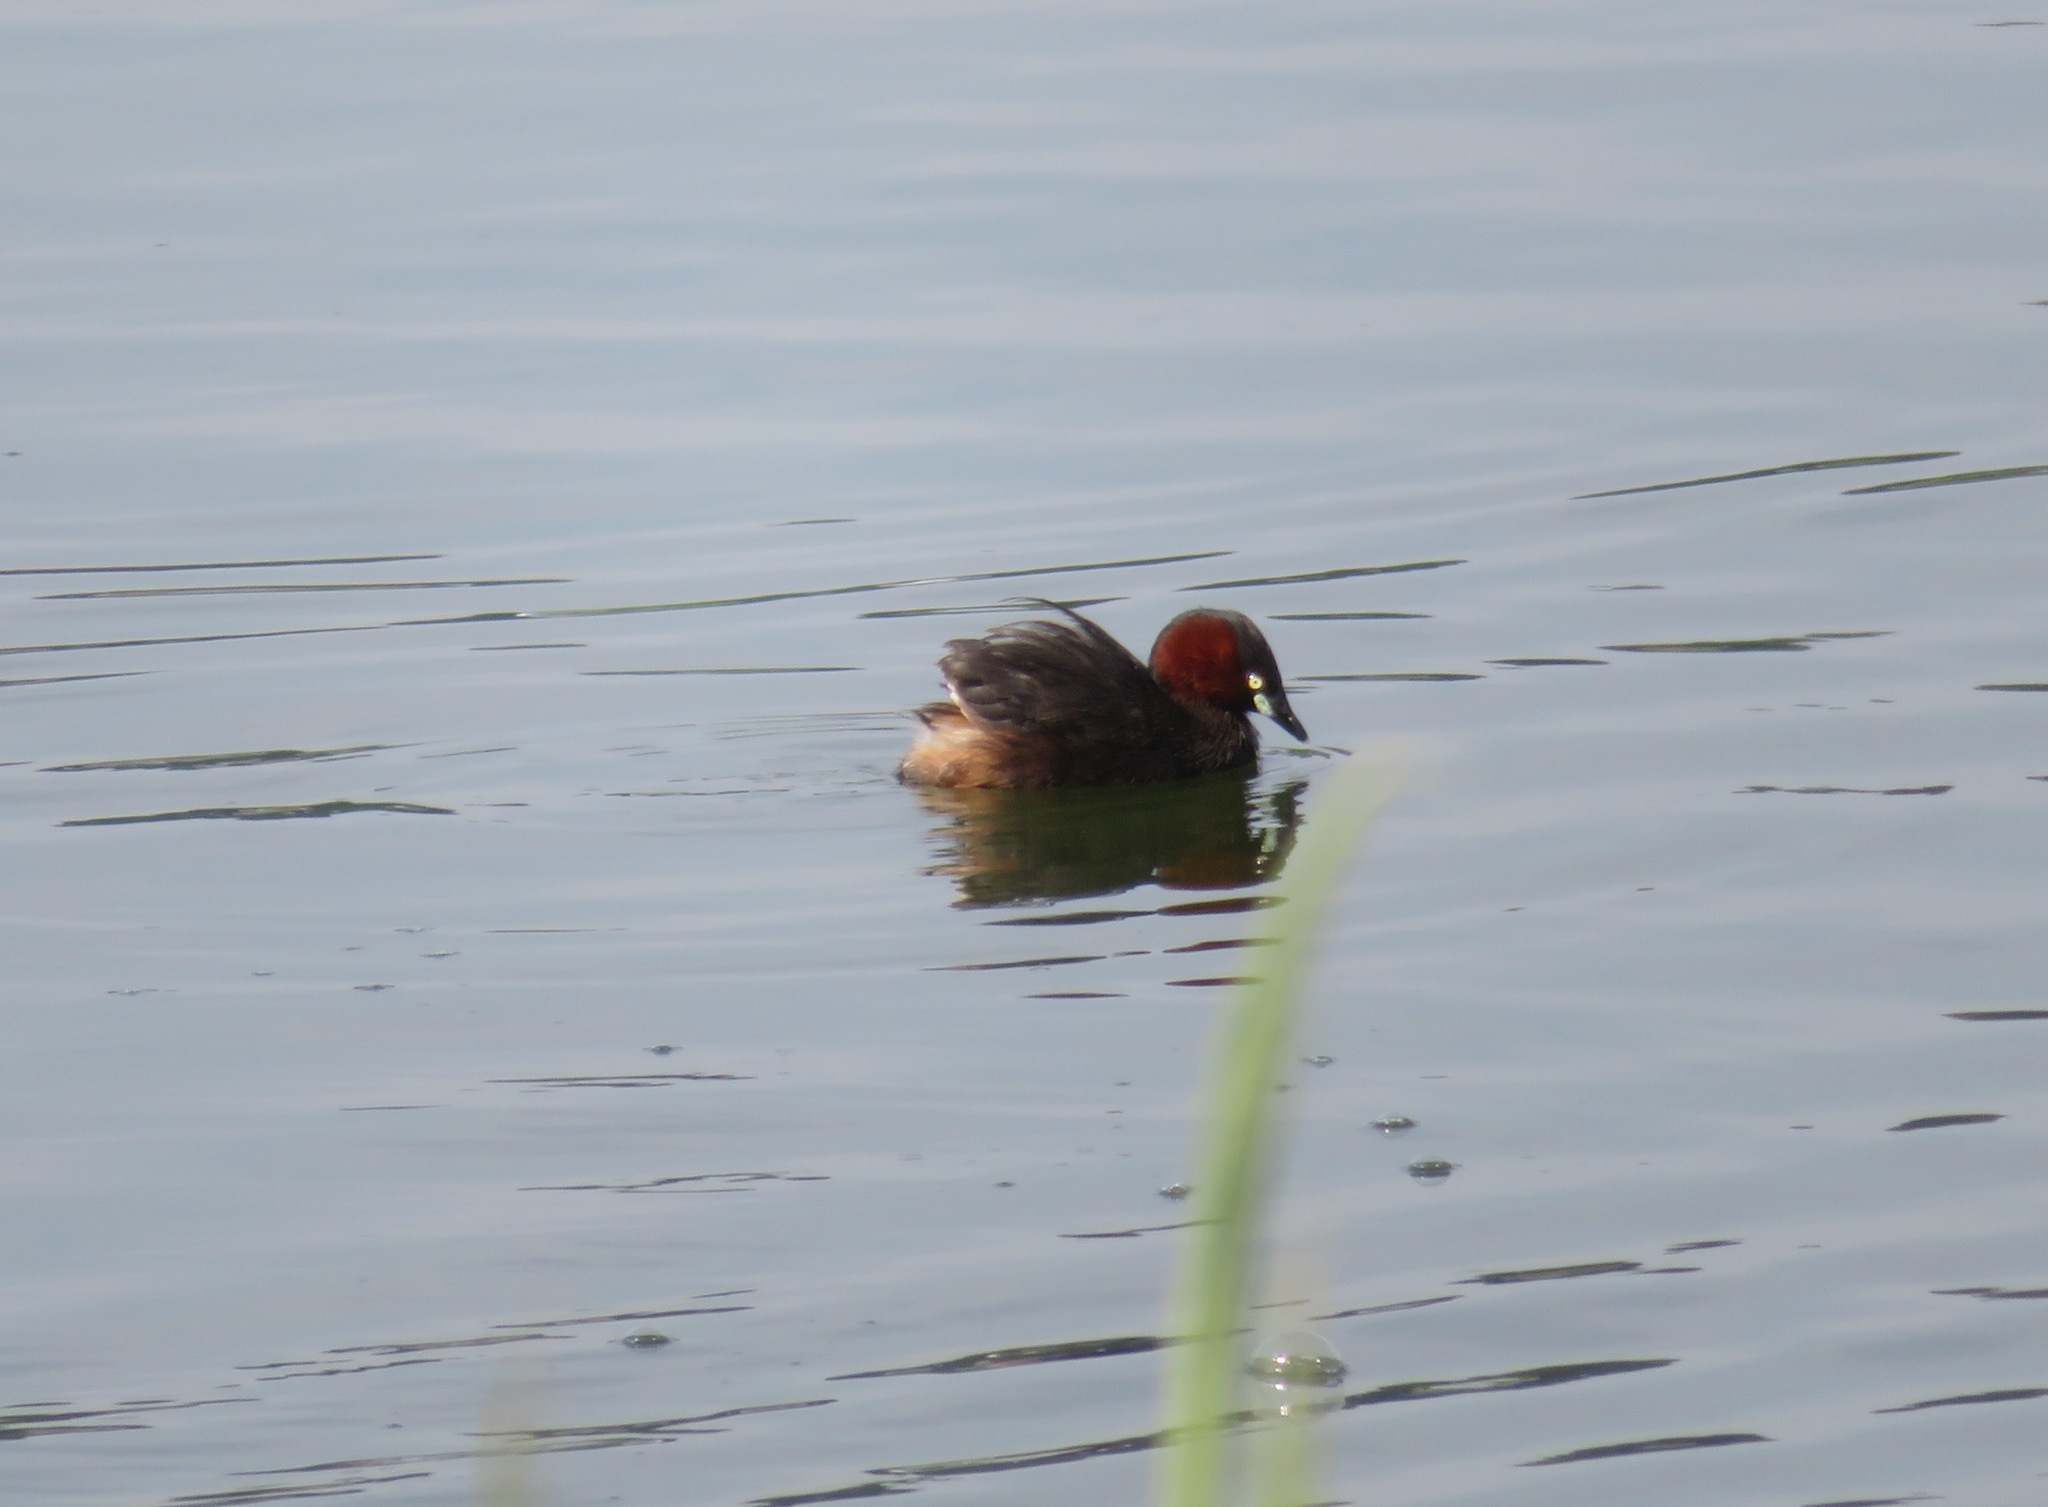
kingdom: Animalia
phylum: Chordata
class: Aves
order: Podicipediformes
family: Podicipedidae
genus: Tachybaptus
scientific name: Tachybaptus ruficollis
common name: Little grebe
